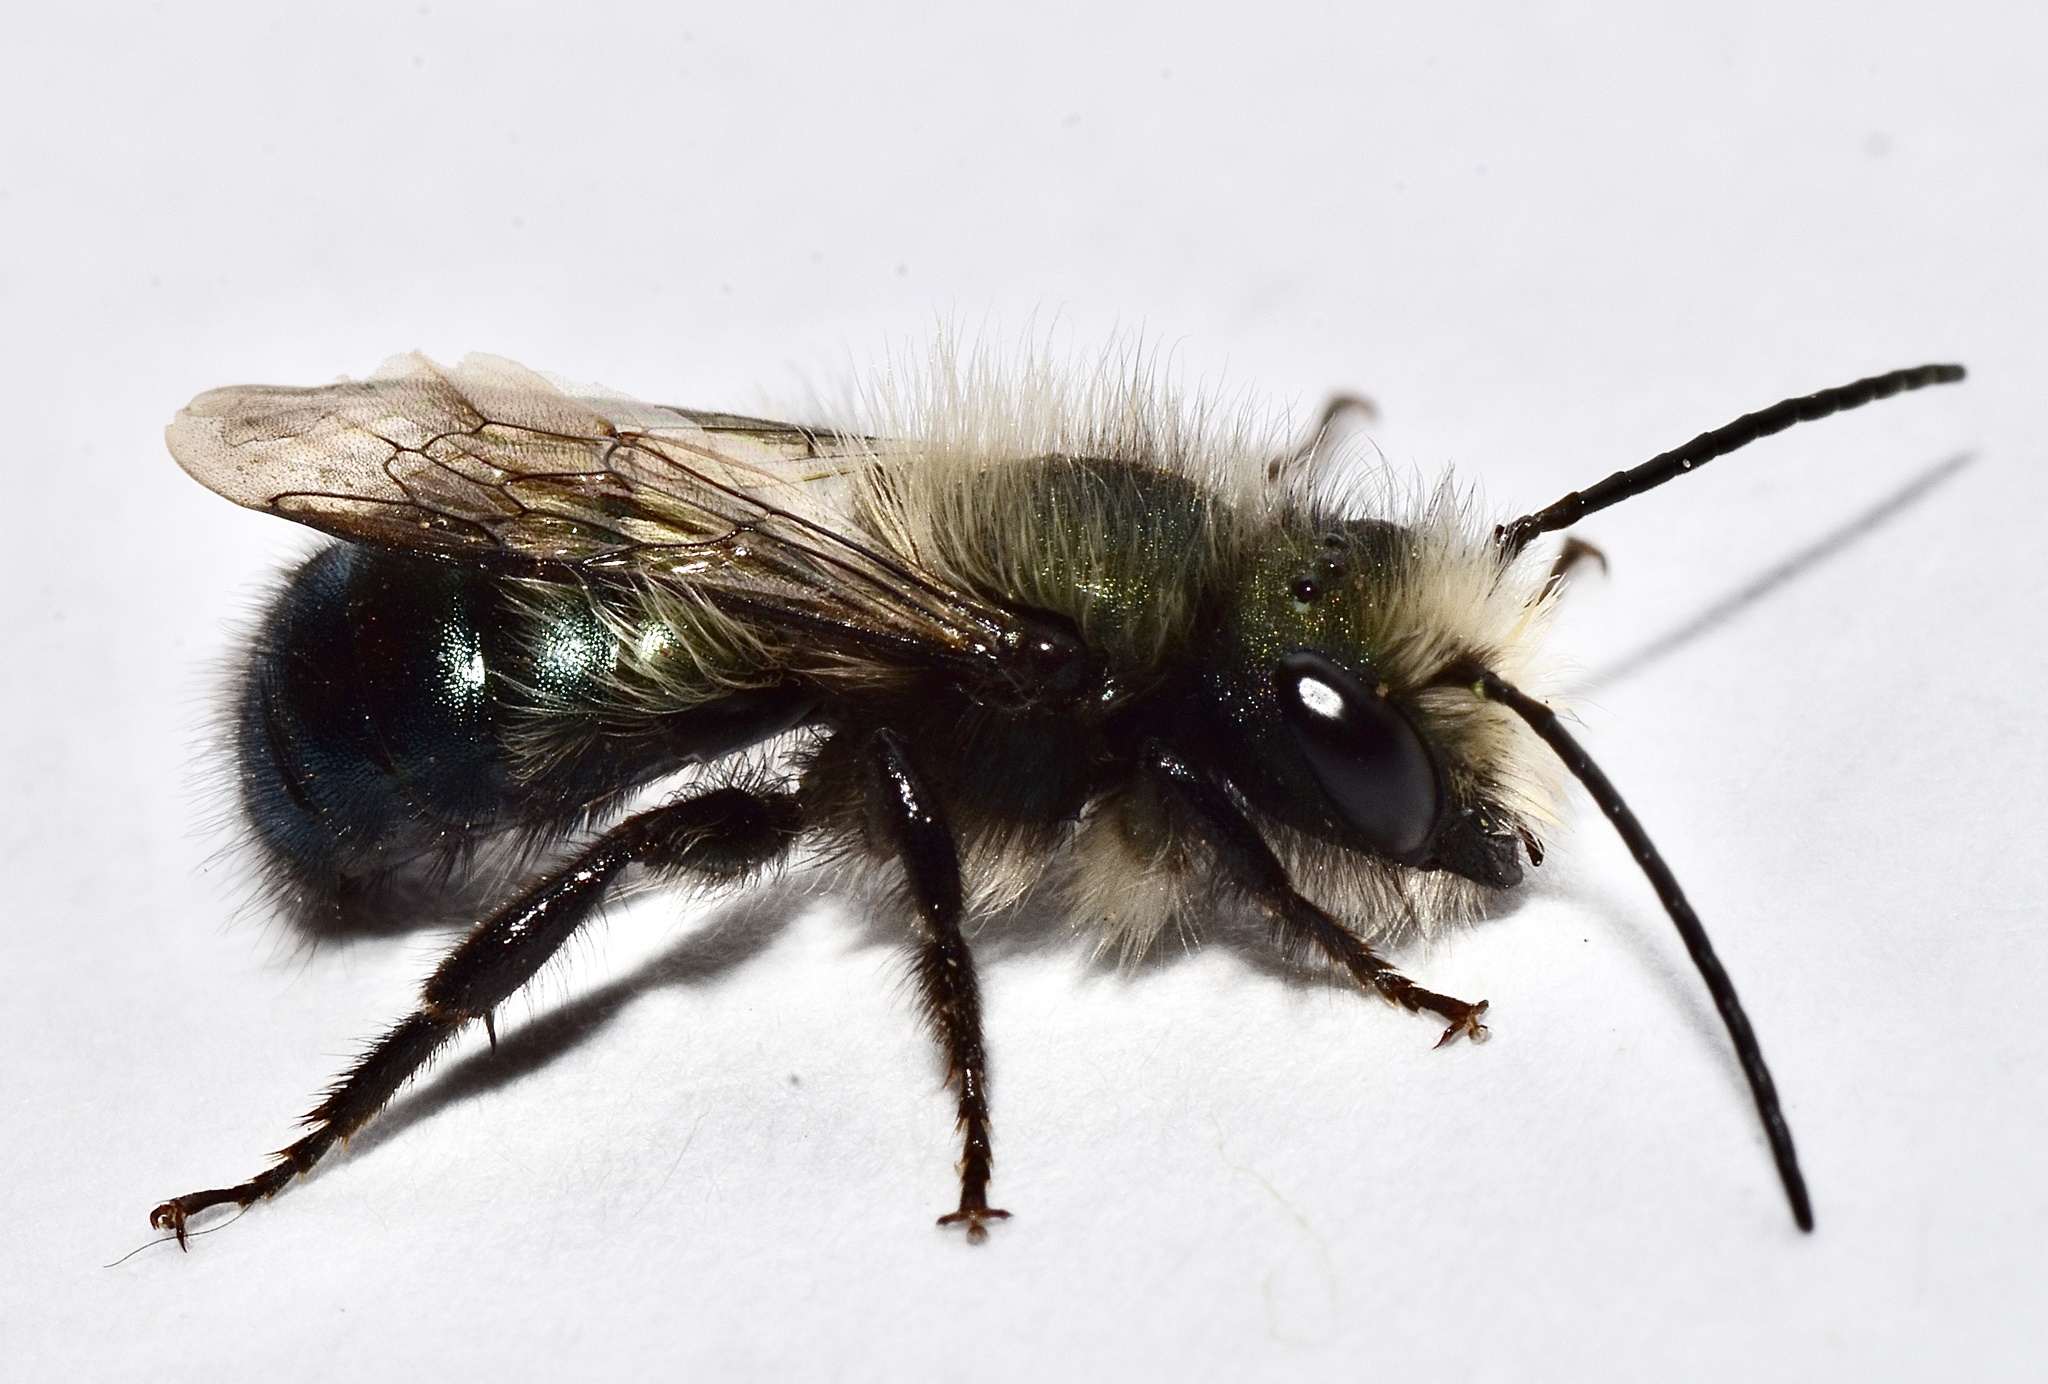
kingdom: Animalia
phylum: Arthropoda
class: Insecta
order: Hymenoptera
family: Megachilidae
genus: Osmia
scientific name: Osmia lignaria
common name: Blue orchard bee
